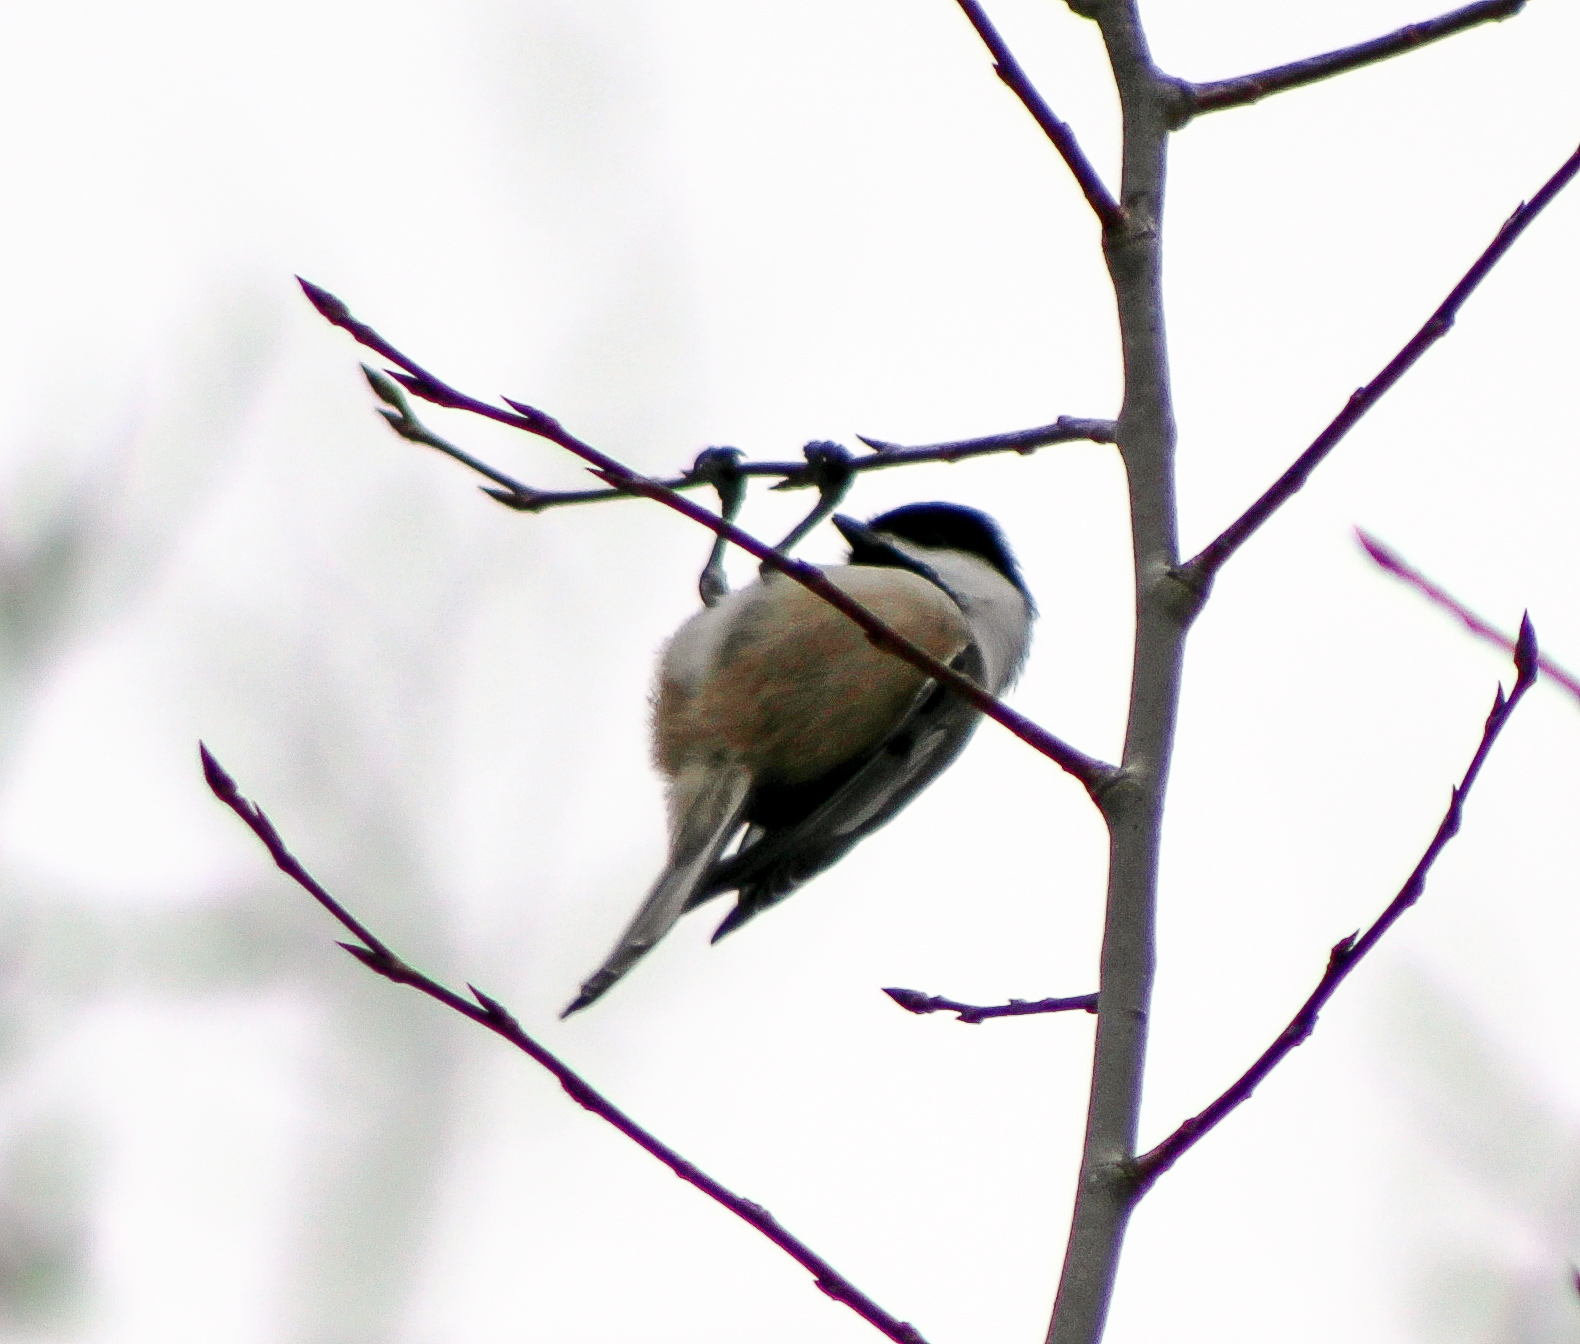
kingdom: Animalia
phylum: Chordata
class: Aves
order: Passeriformes
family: Paridae
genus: Poecile
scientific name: Poecile atricapillus
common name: Black-capped chickadee
